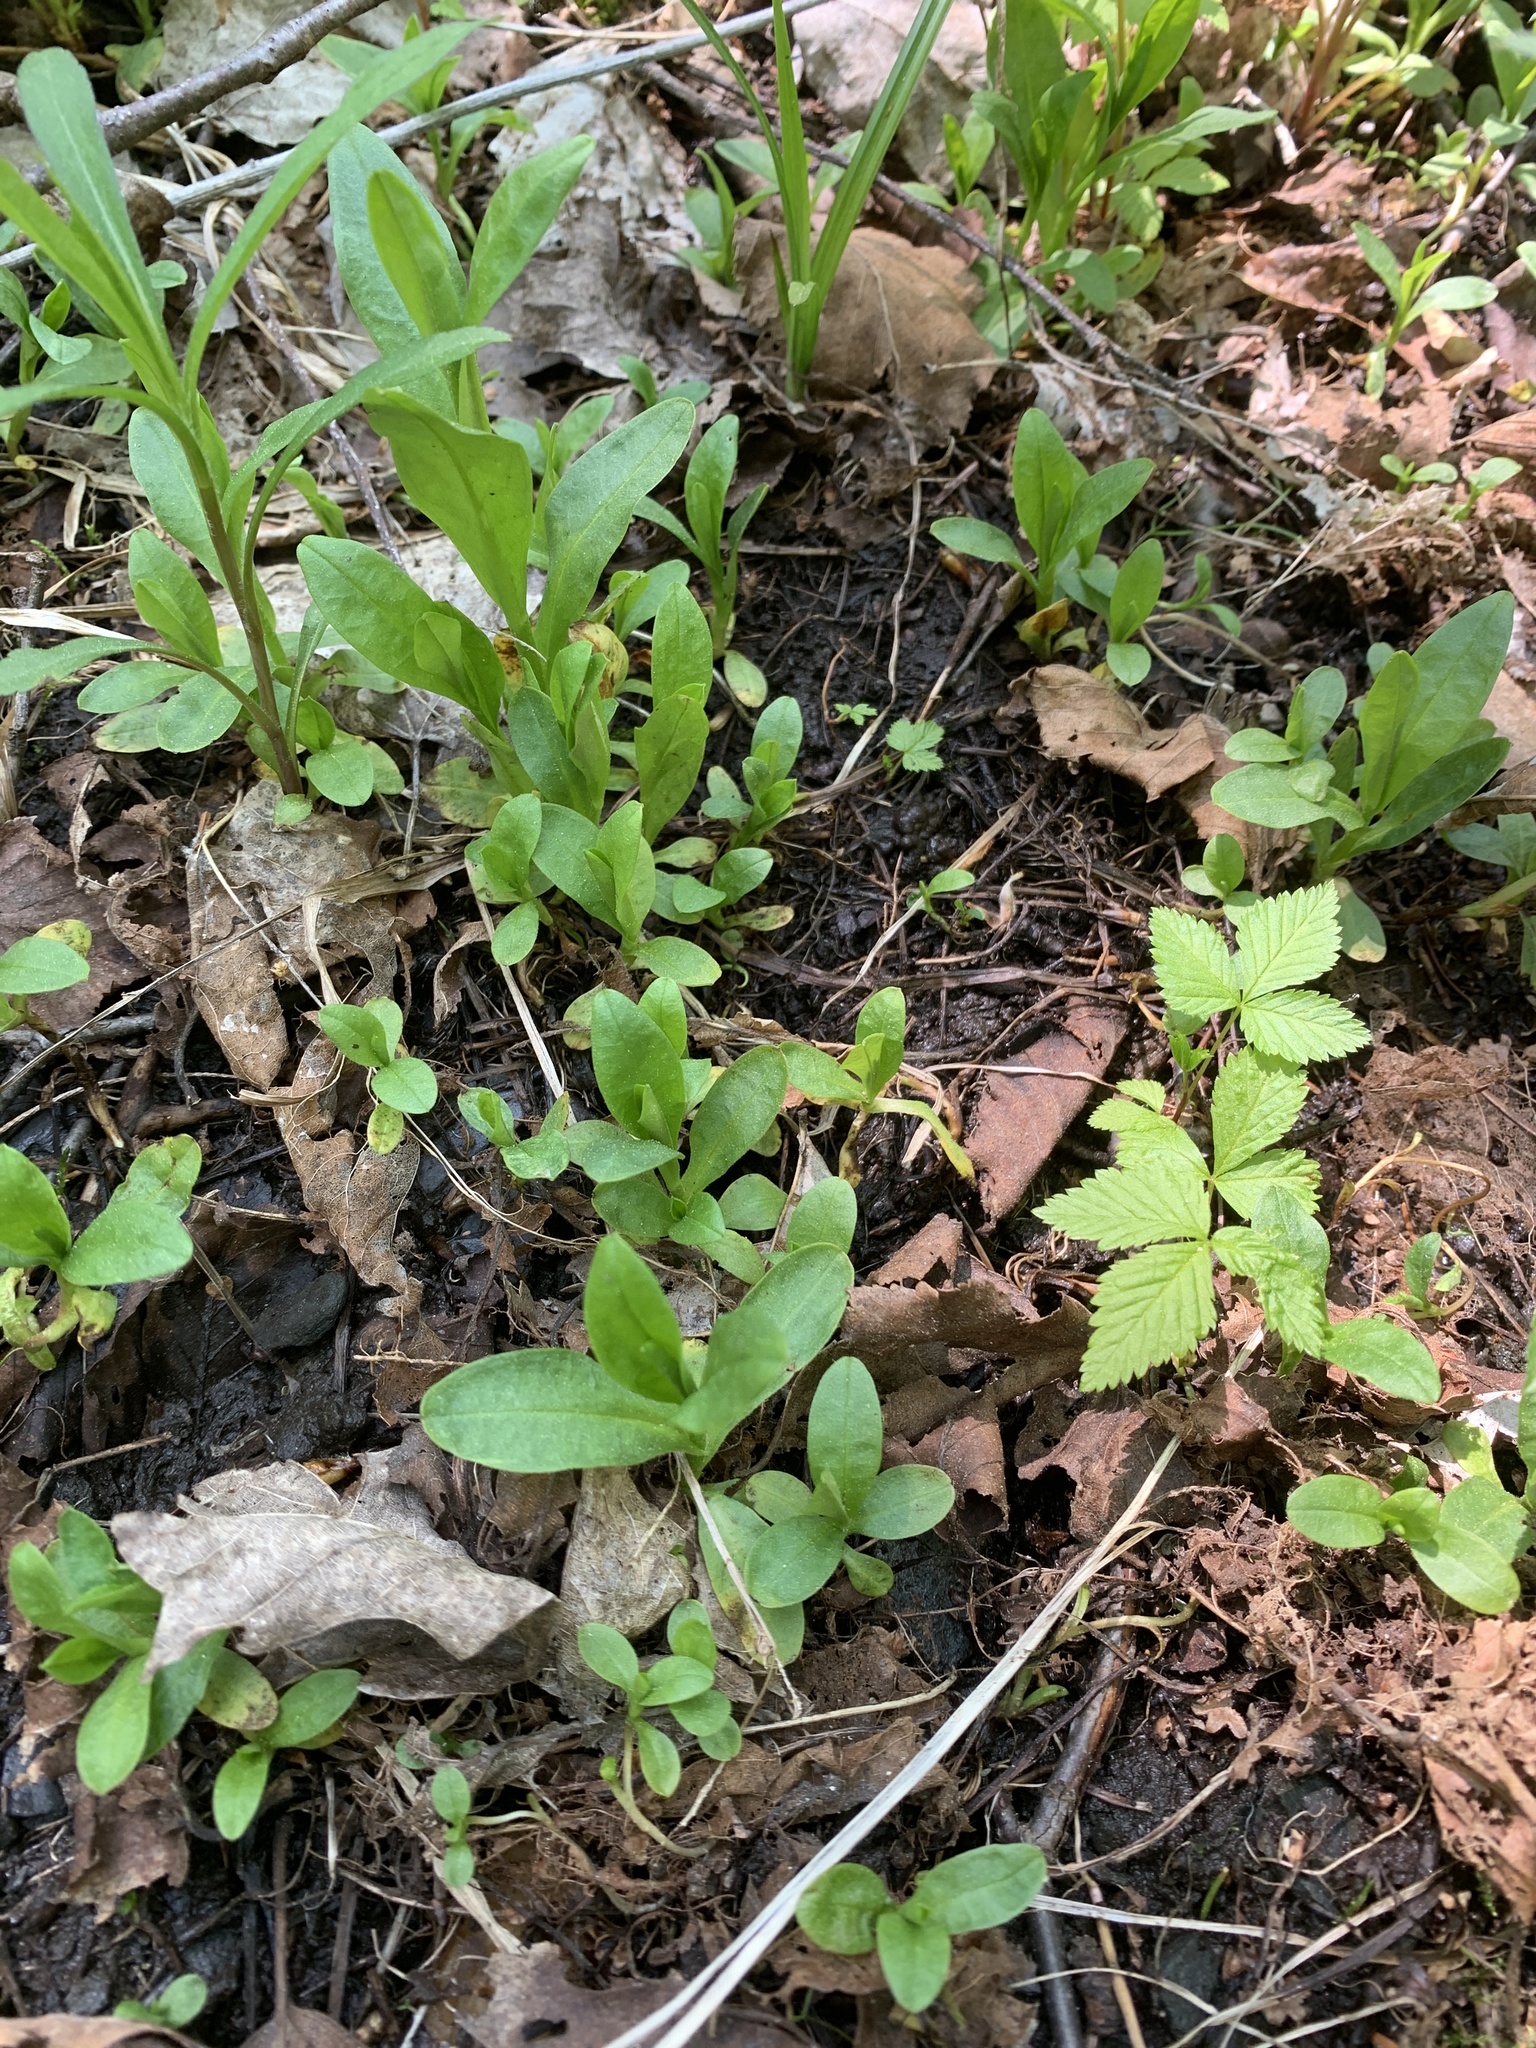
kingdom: Plantae
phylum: Tracheophyta
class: Magnoliopsida
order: Boraginales
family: Boraginaceae
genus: Myosotis
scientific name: Myosotis scorpioides
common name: Water forget-me-not
